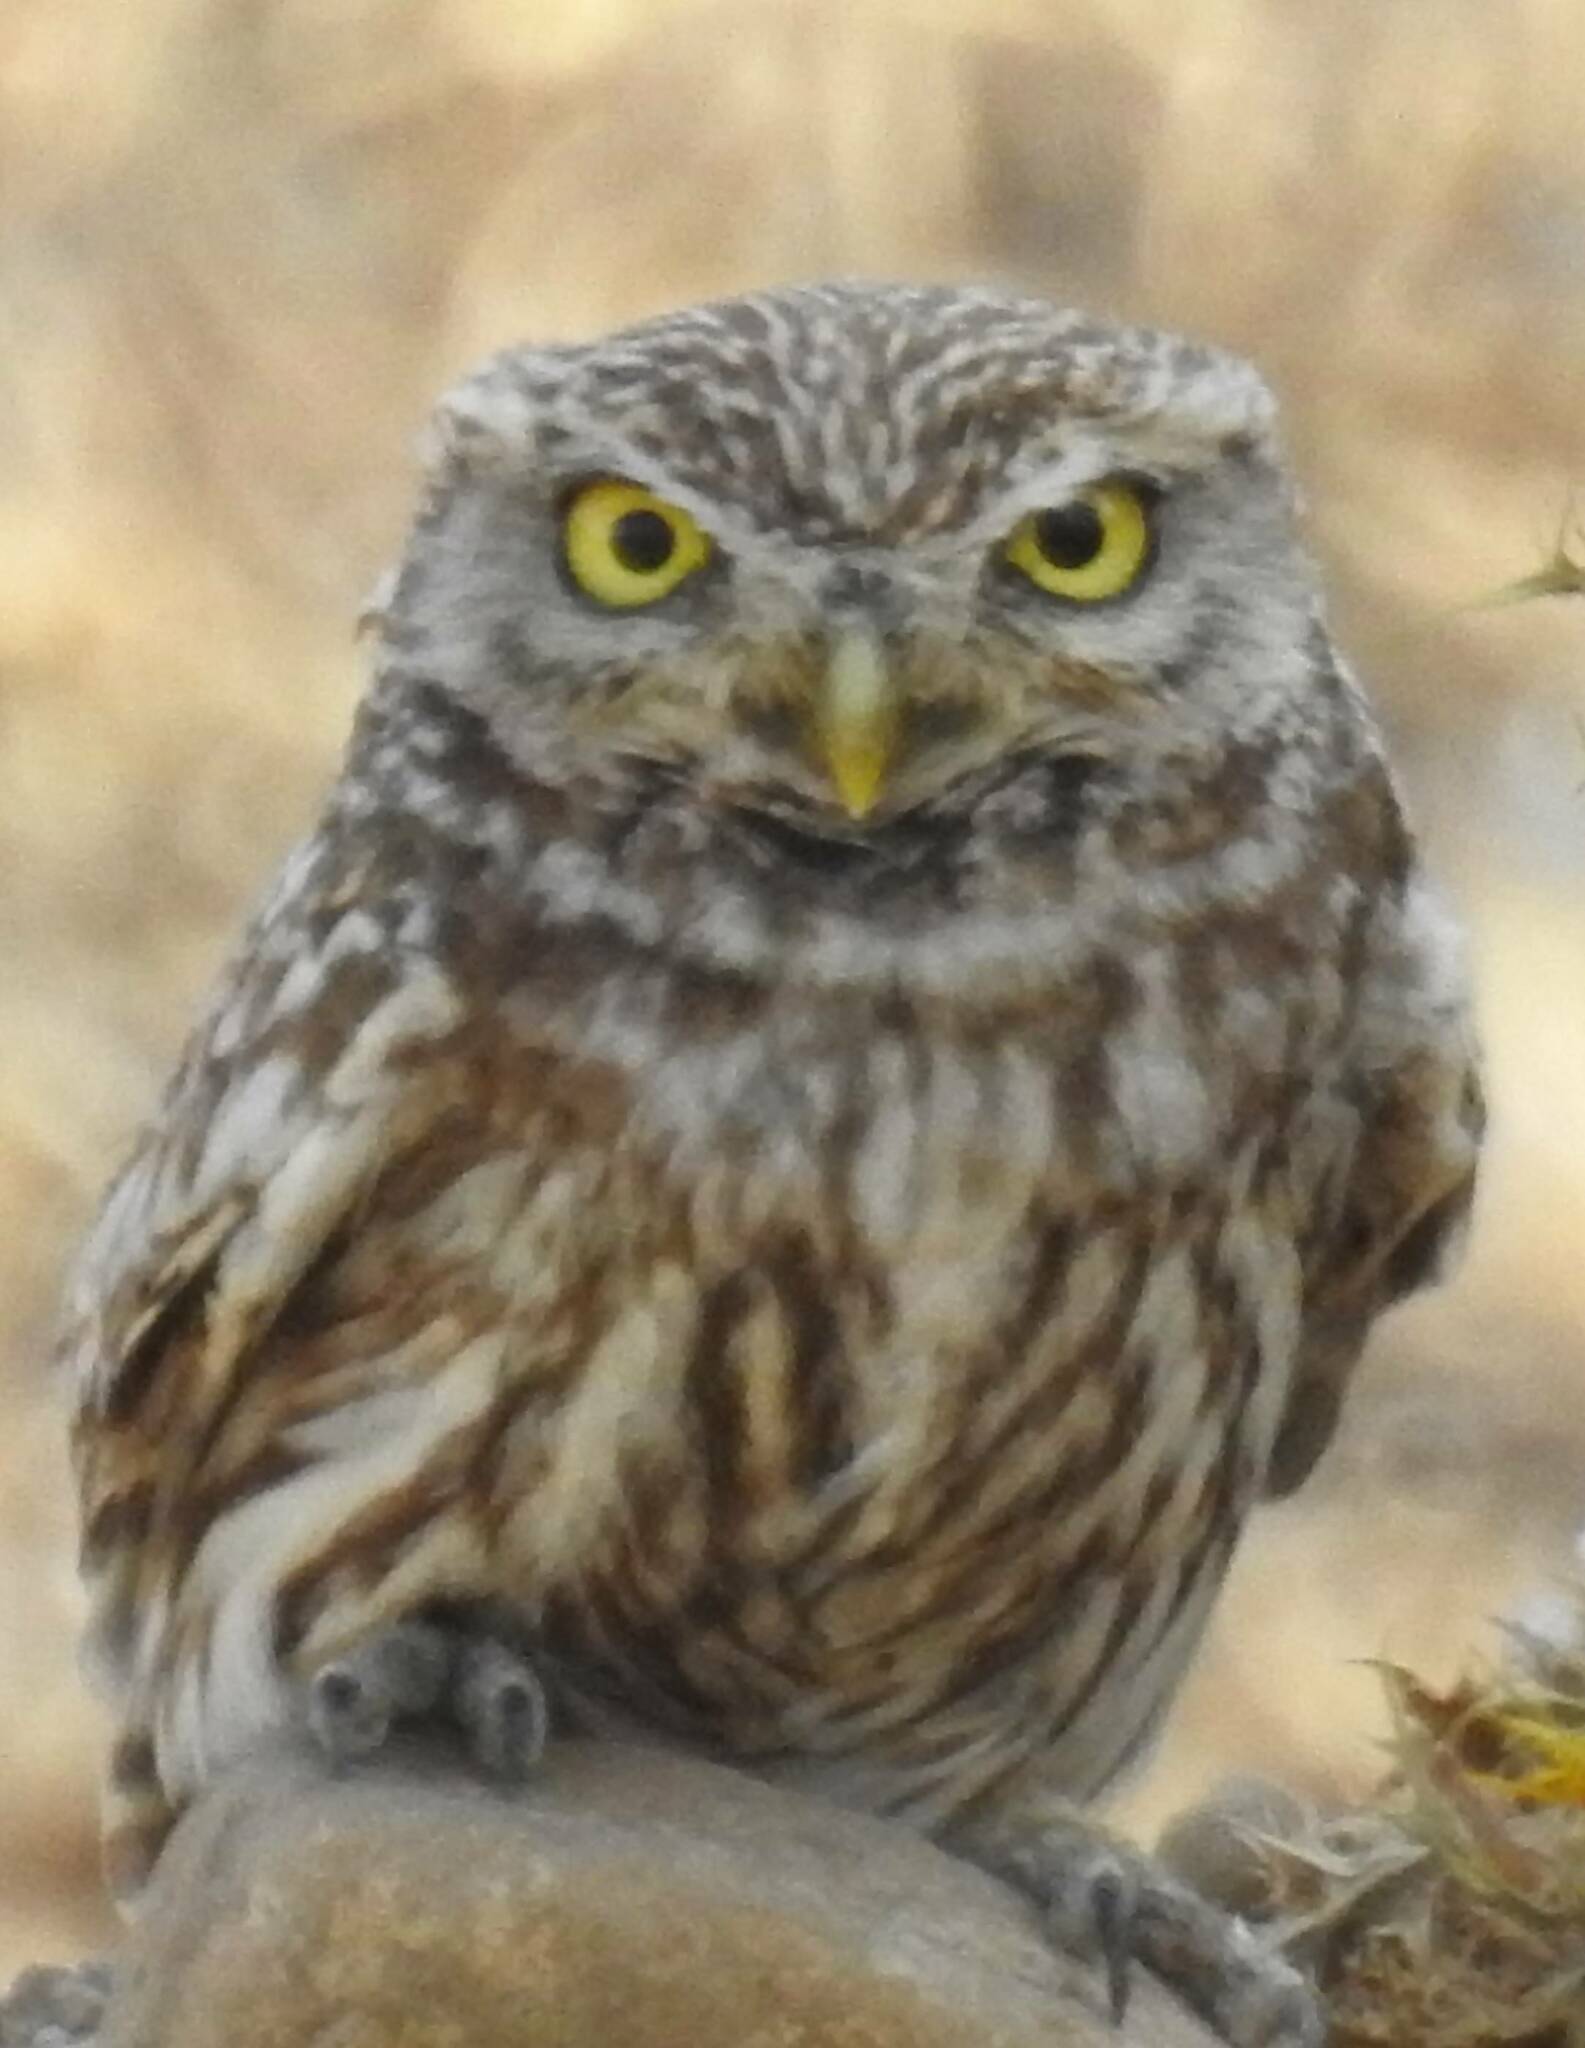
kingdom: Animalia
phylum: Chordata
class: Aves
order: Strigiformes
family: Strigidae
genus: Athene
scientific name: Athene noctua
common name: Little owl
